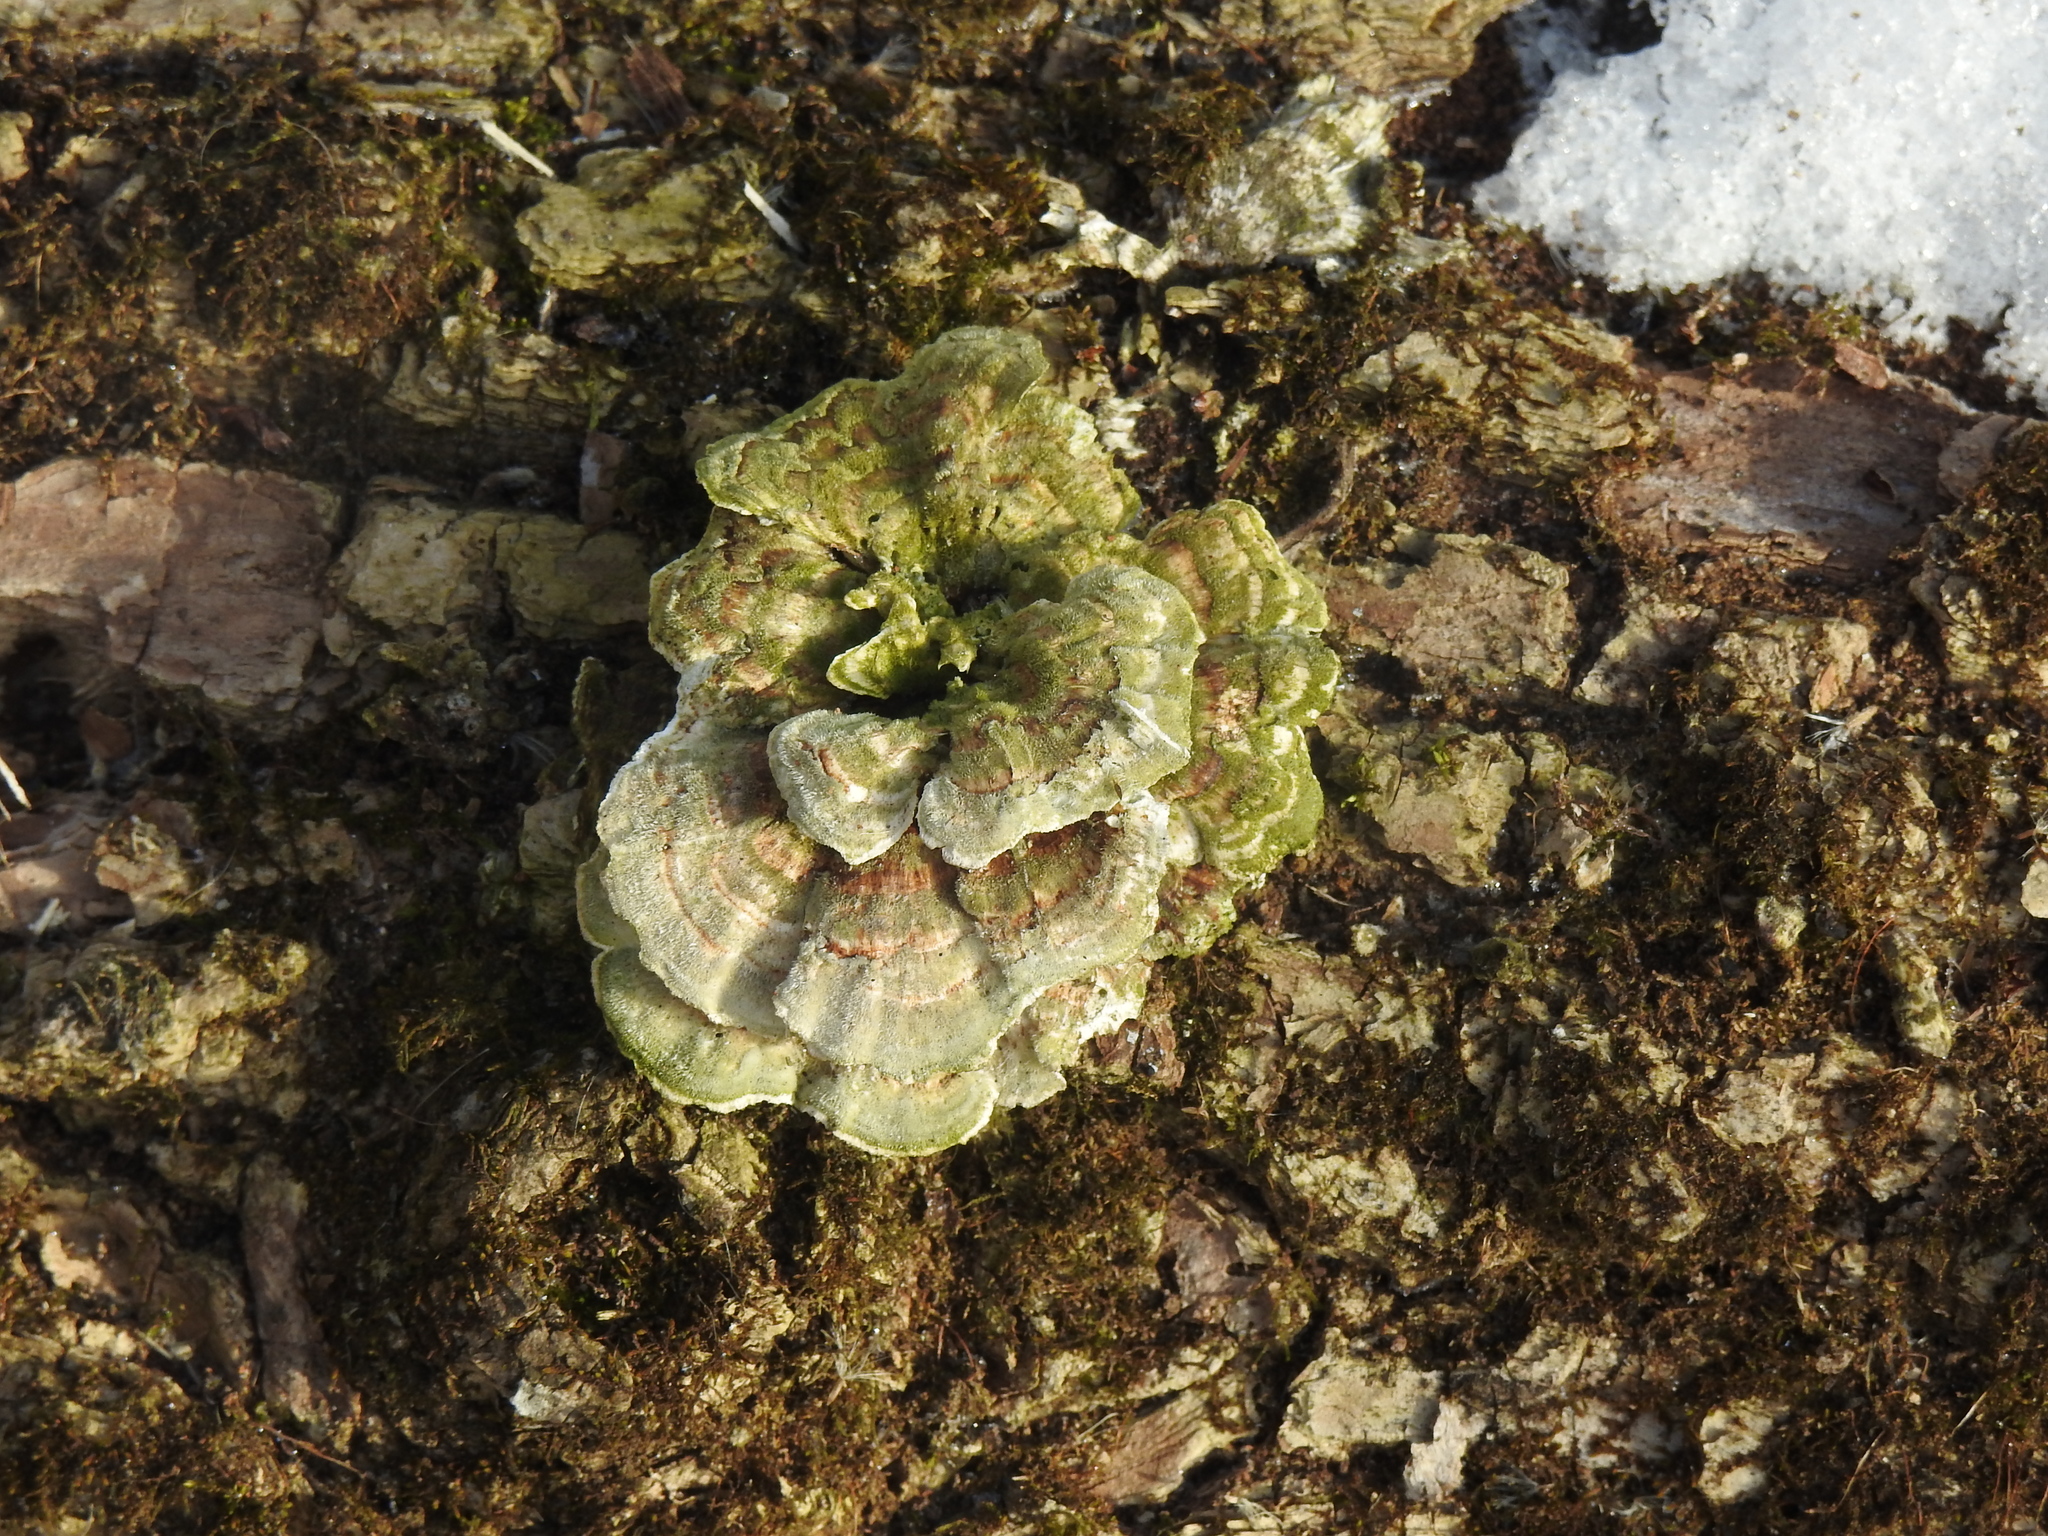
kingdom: Fungi
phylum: Basidiomycota
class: Agaricomycetes
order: Polyporales
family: Polyporaceae
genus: Trametes
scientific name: Trametes versicolor
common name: Turkeytail
